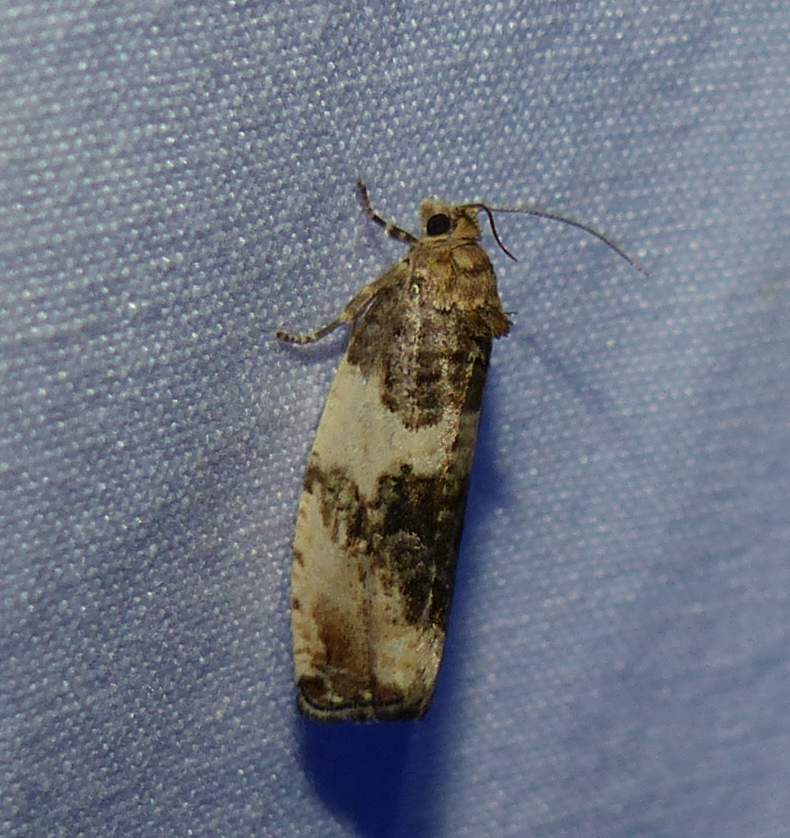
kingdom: Animalia
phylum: Arthropoda
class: Insecta
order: Lepidoptera
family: Tortricidae
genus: Pseudosciaphila
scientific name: Pseudosciaphila duplex
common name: Poplar leafroller moth
